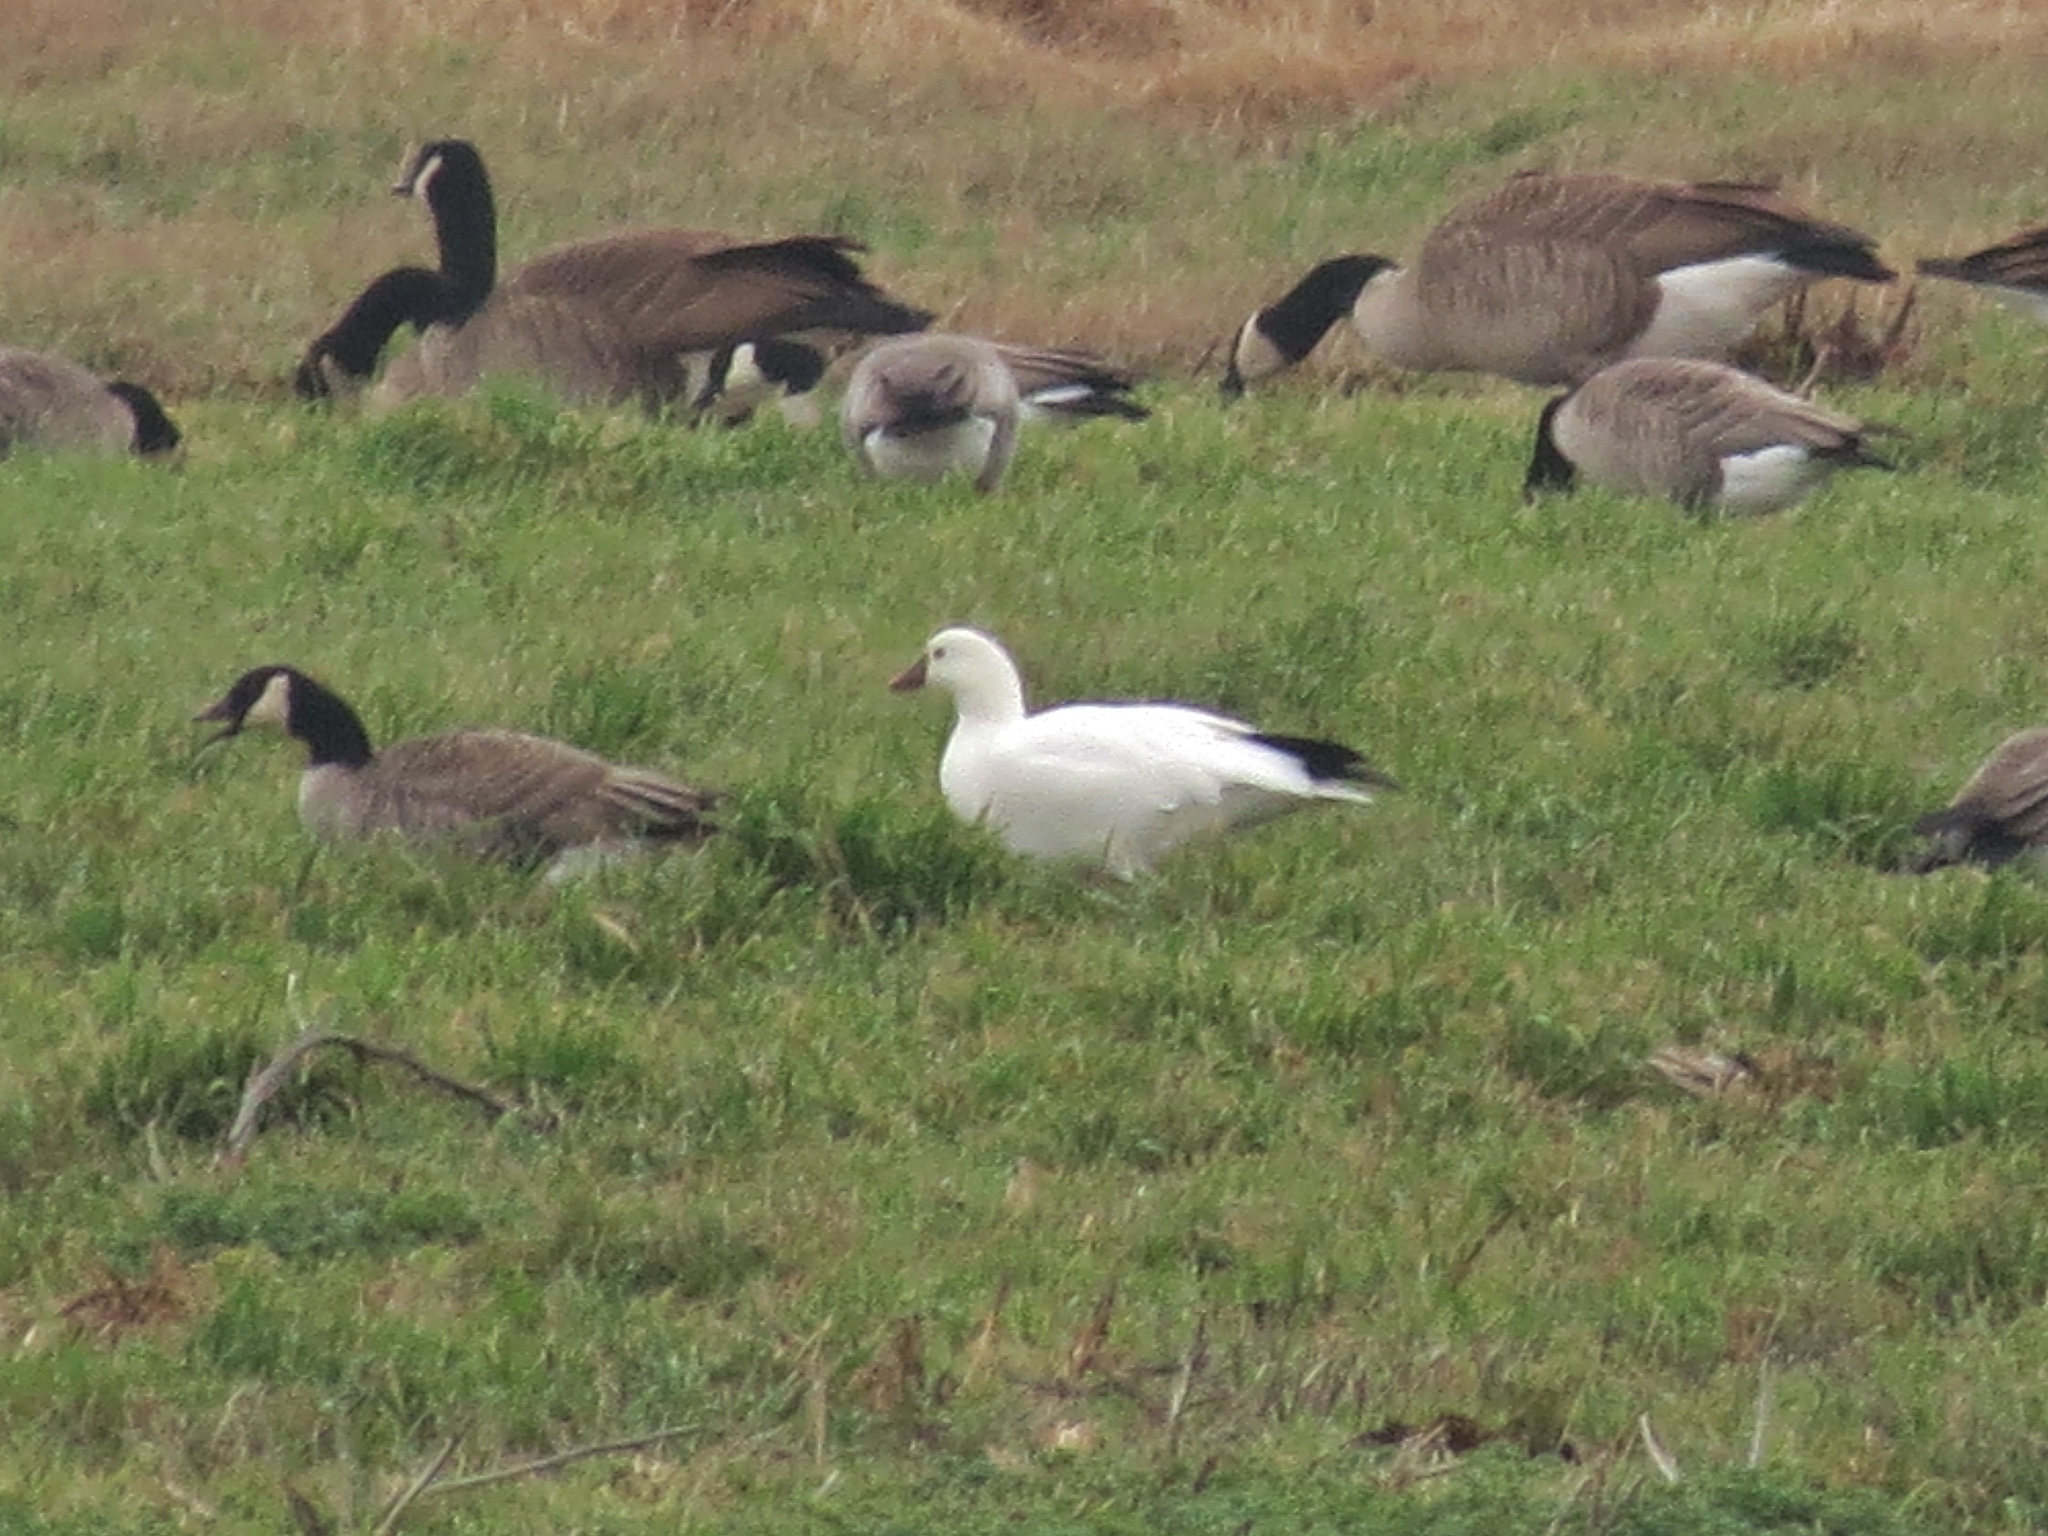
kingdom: Animalia
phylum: Chordata
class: Aves
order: Anseriformes
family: Anatidae
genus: Anser
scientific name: Anser rossii
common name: Ross's goose
